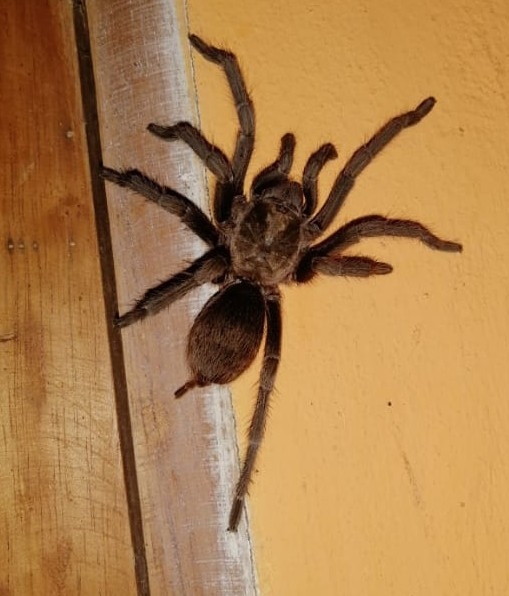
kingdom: Animalia
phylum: Arthropoda
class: Arachnida
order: Araneae
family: Theraphosidae
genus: Aphonopelma
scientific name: Aphonopelma crinirufum
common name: Tarantula spiders
